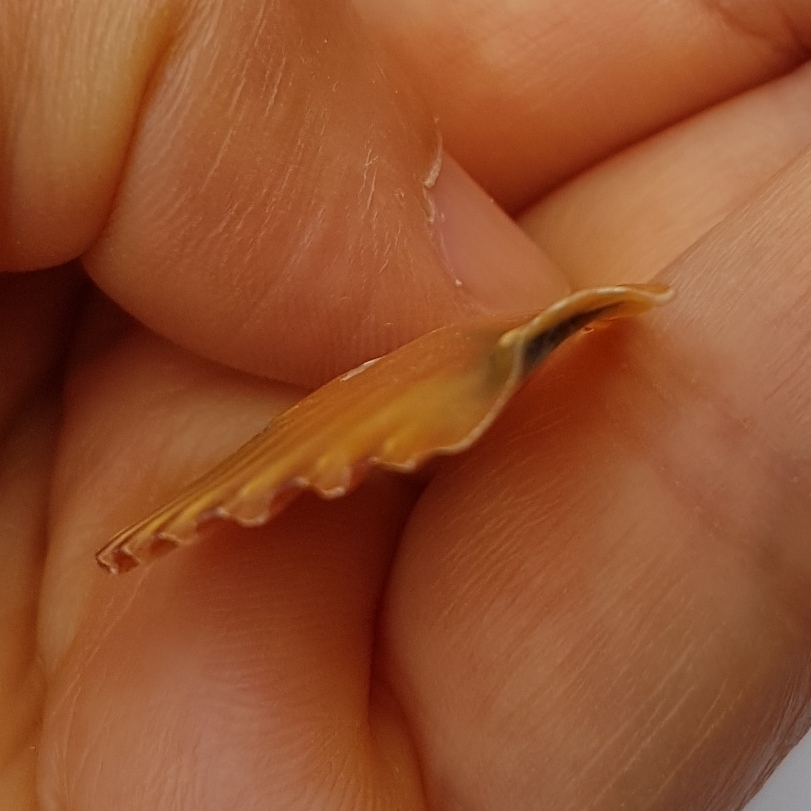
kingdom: Animalia
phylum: Mollusca
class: Bivalvia
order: Pectinida
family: Pectinidae
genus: Pecten
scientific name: Pecten jacobaeus
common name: St.james's scallop
